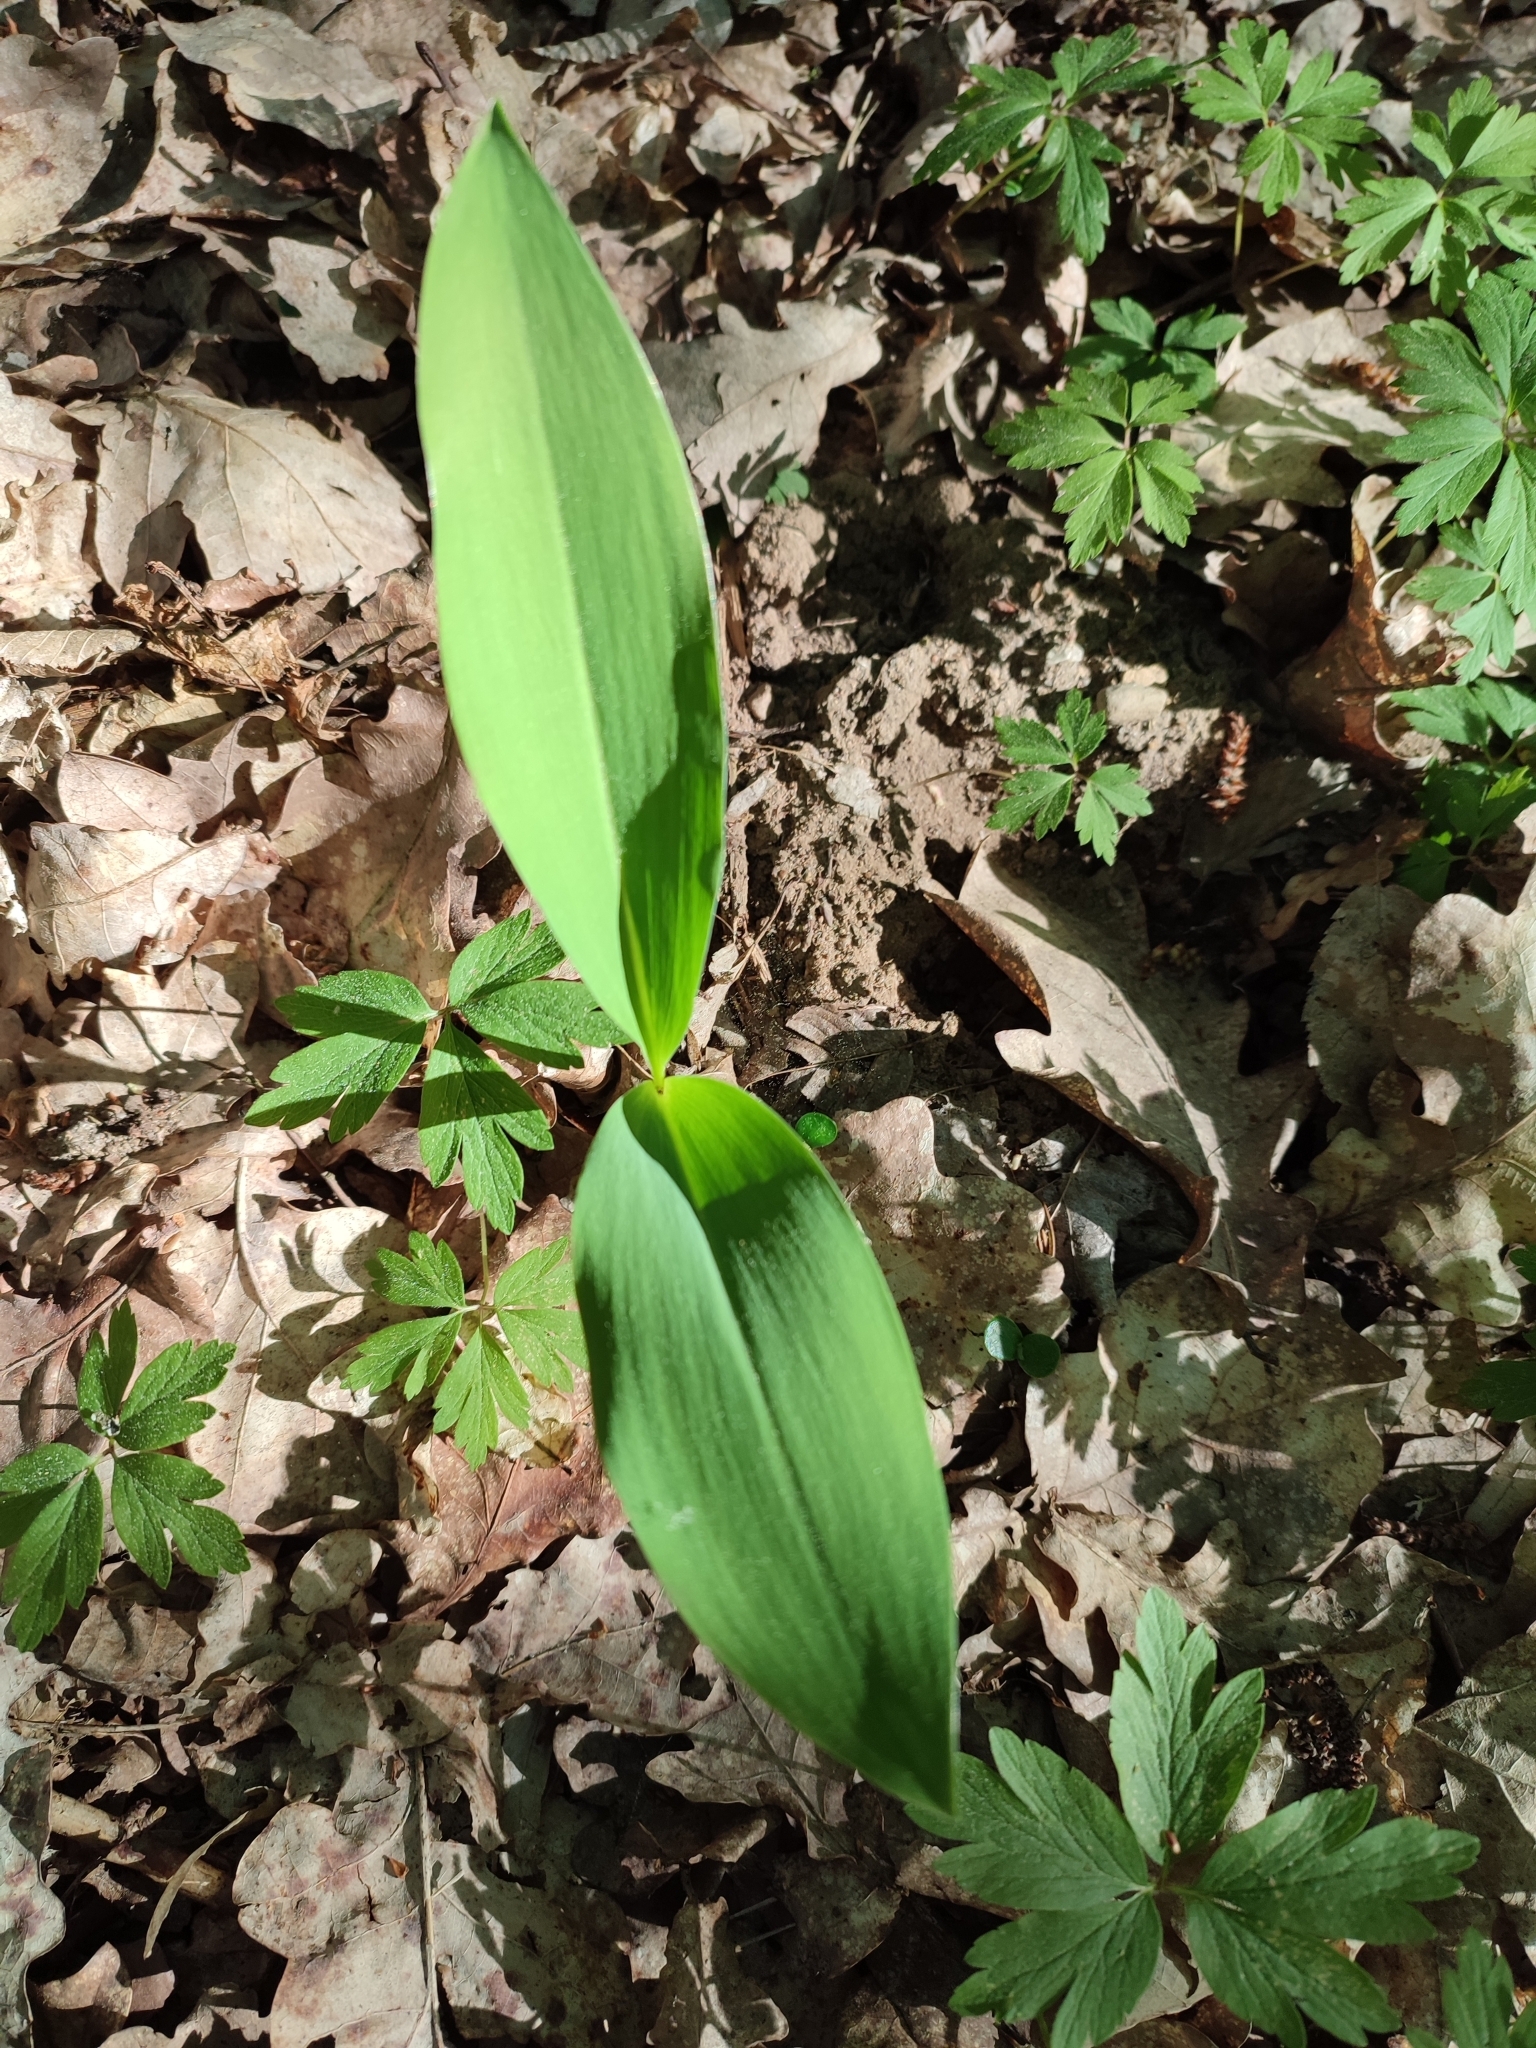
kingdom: Plantae
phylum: Tracheophyta
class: Liliopsida
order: Asparagales
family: Asparagaceae
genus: Convallaria
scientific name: Convallaria majalis
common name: Lily-of-the-valley
